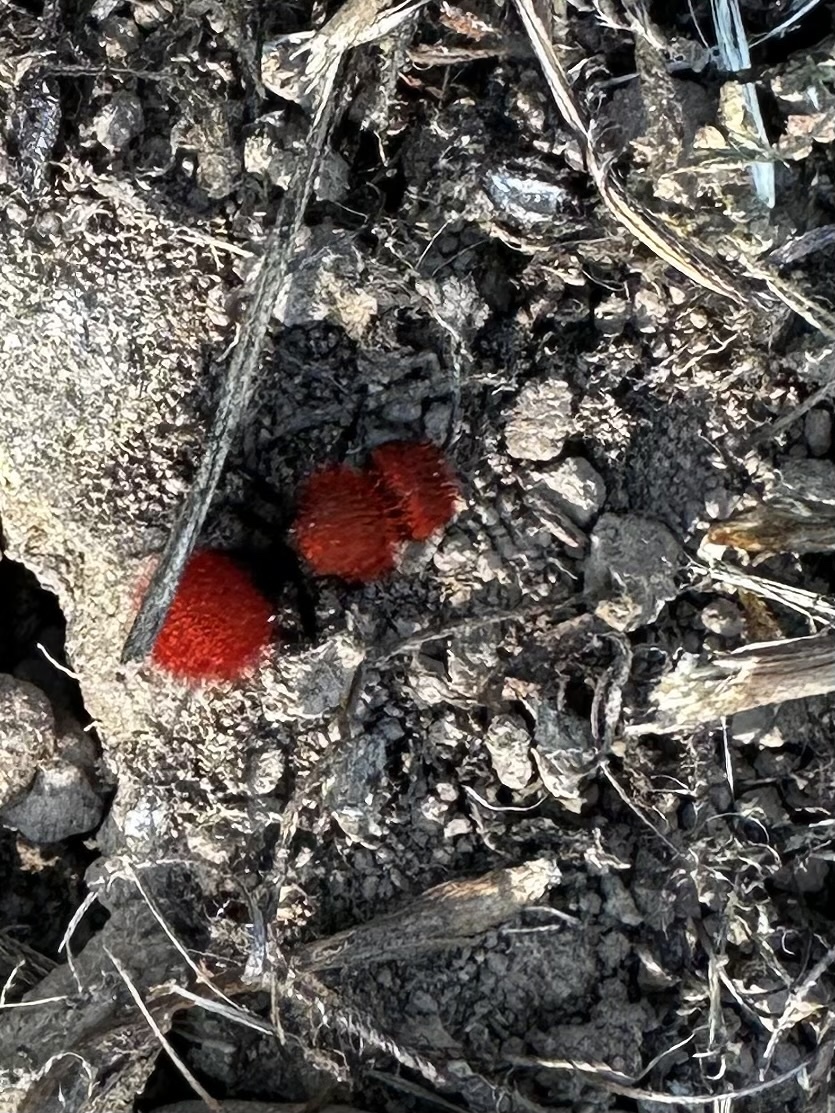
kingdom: Animalia
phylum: Arthropoda
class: Insecta
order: Hymenoptera
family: Mutillidae
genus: Dasymutilla
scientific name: Dasymutilla
